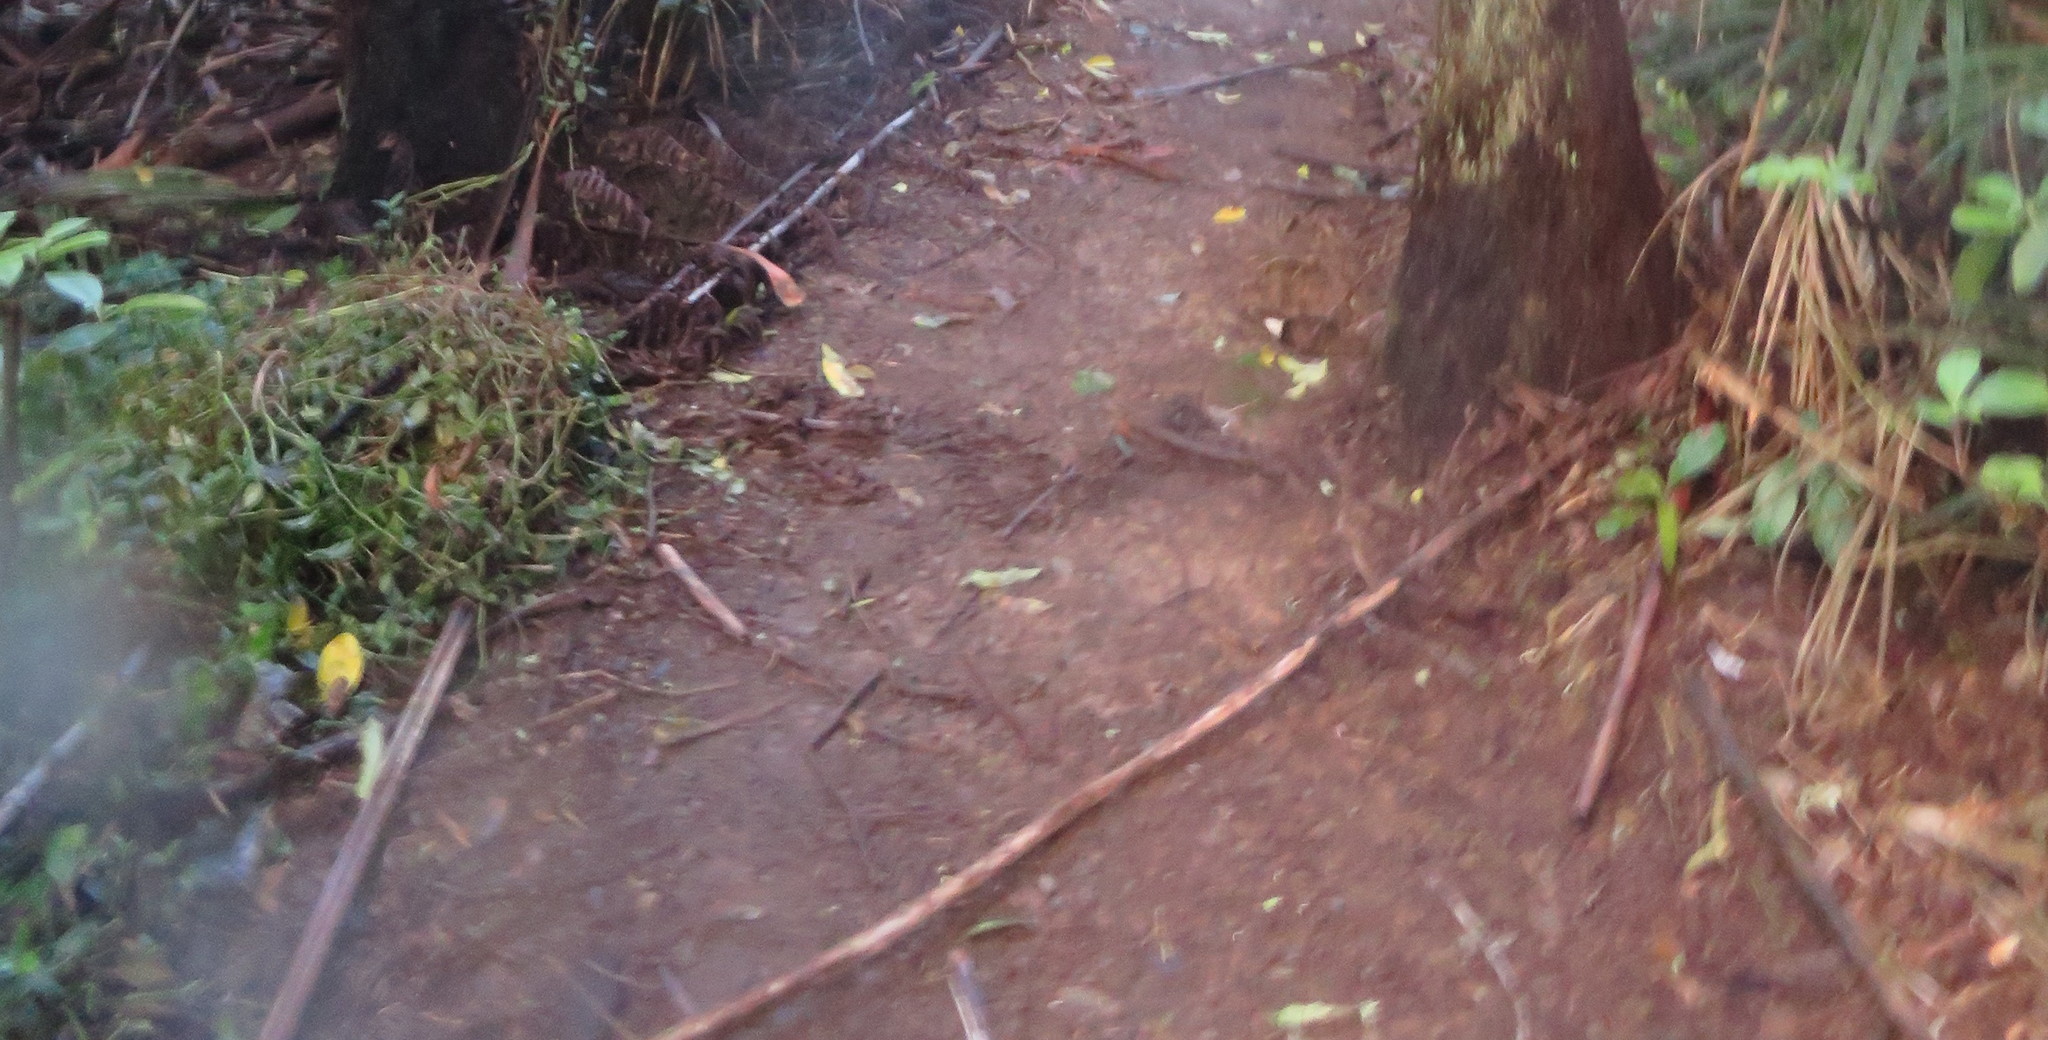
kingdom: Plantae
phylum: Tracheophyta
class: Liliopsida
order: Commelinales
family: Commelinaceae
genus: Tradescantia
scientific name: Tradescantia fluminensis
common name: Wandering-jew
